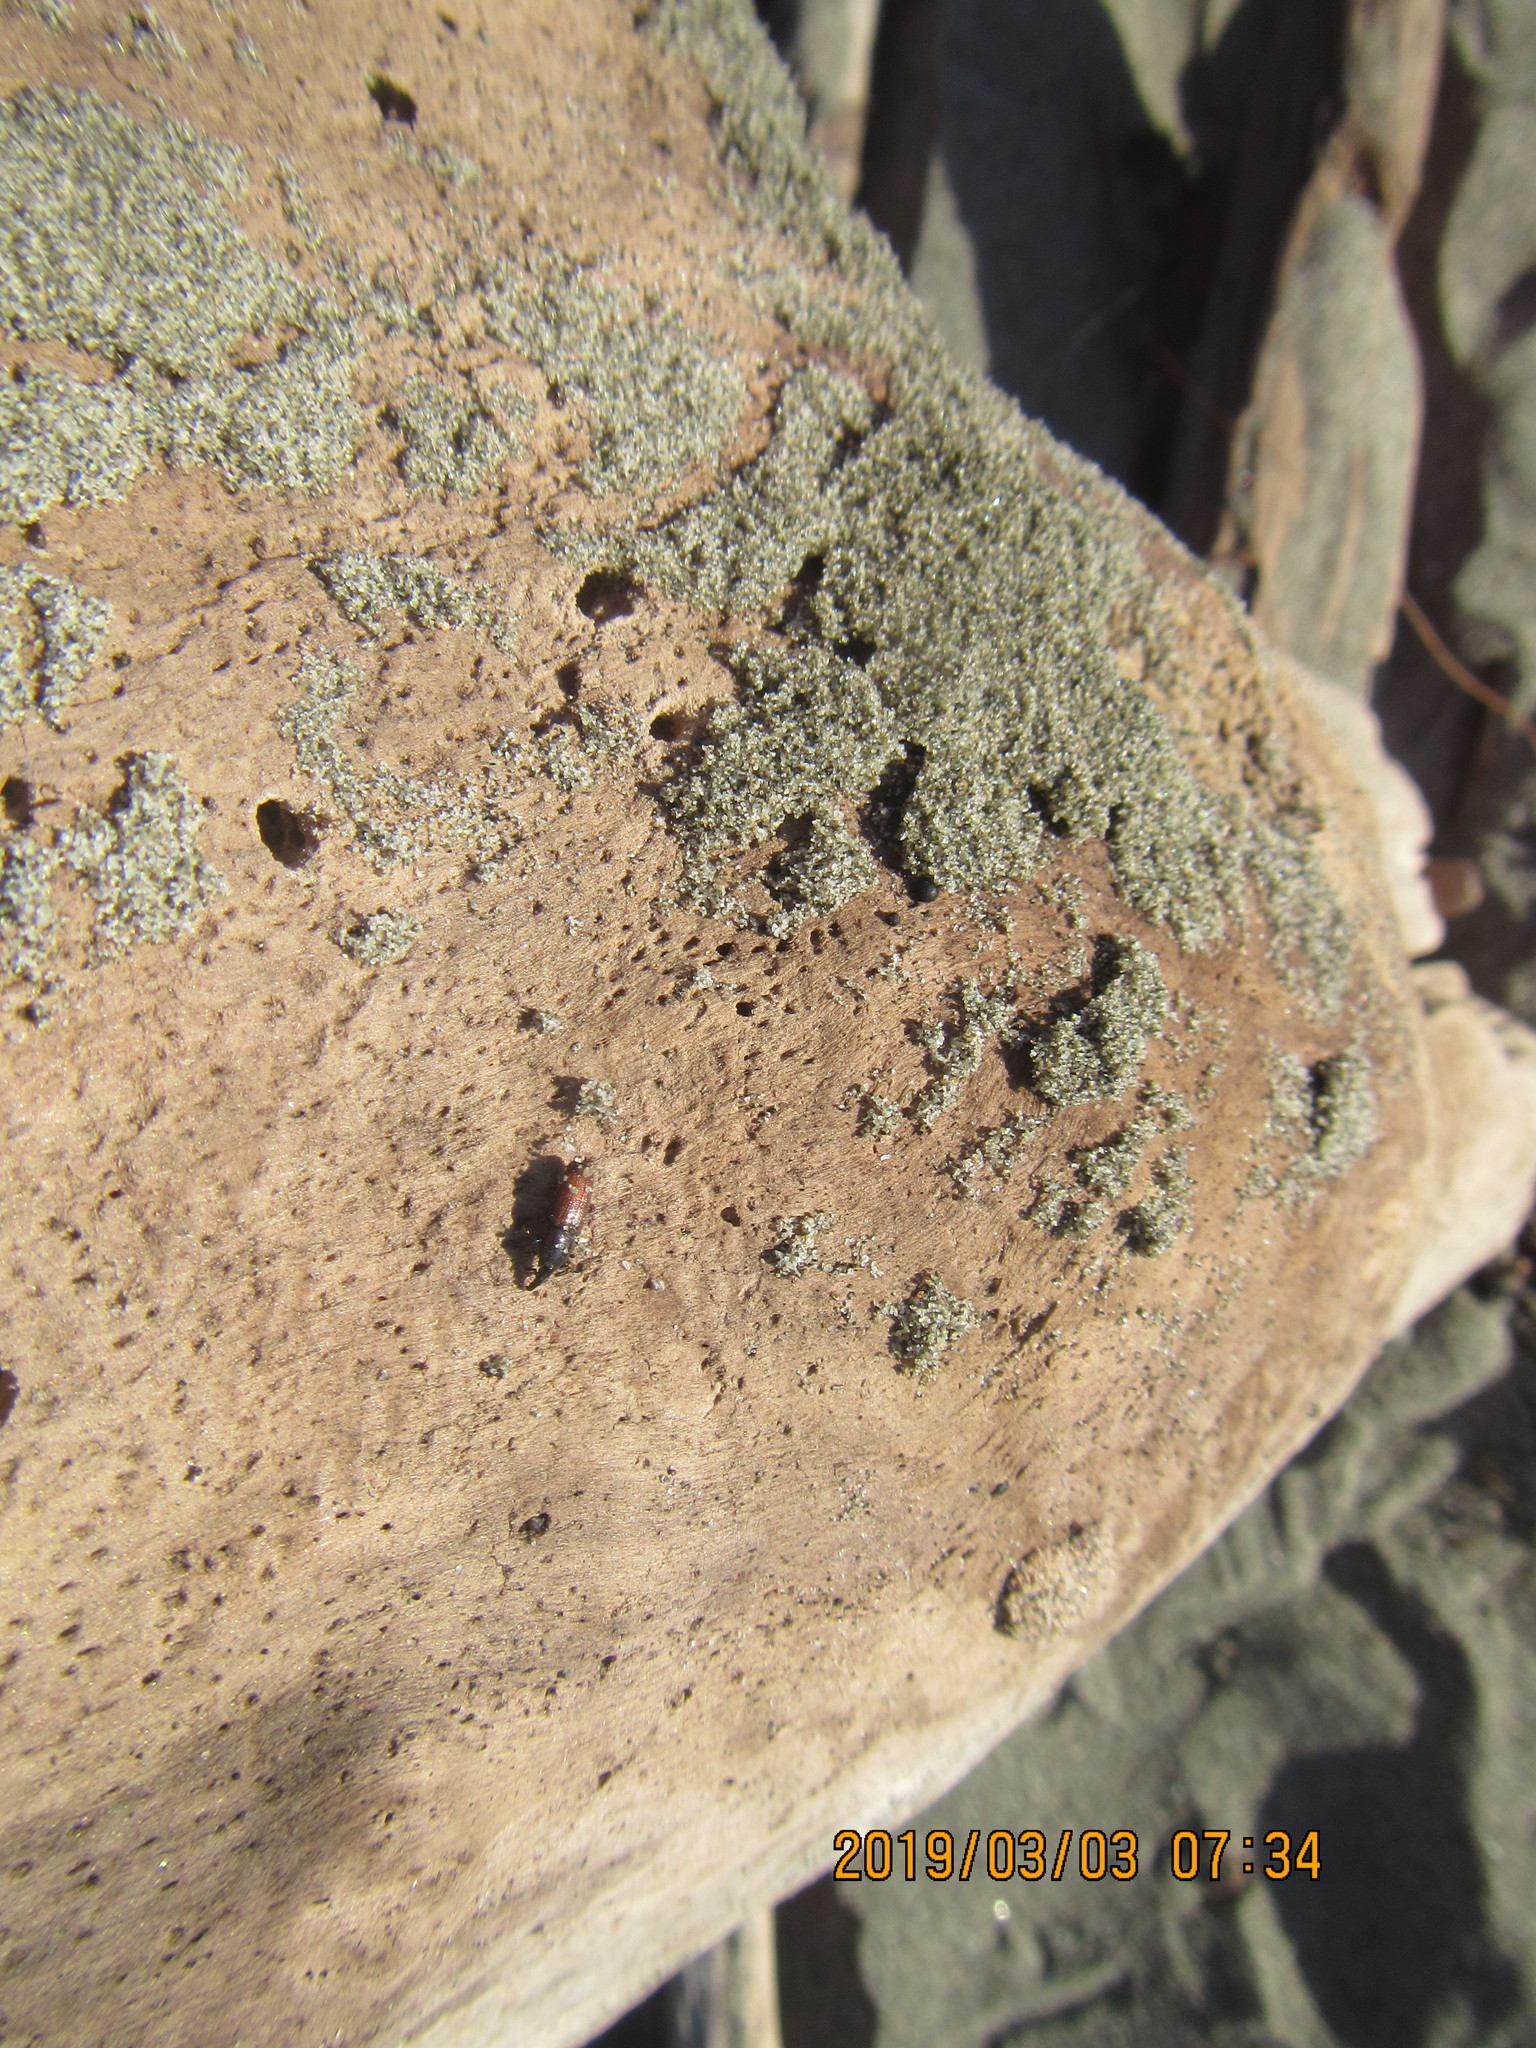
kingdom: Animalia
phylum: Arthropoda
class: Insecta
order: Coleoptera
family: Curculionidae
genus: Mesites
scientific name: Mesites pallidipennis
